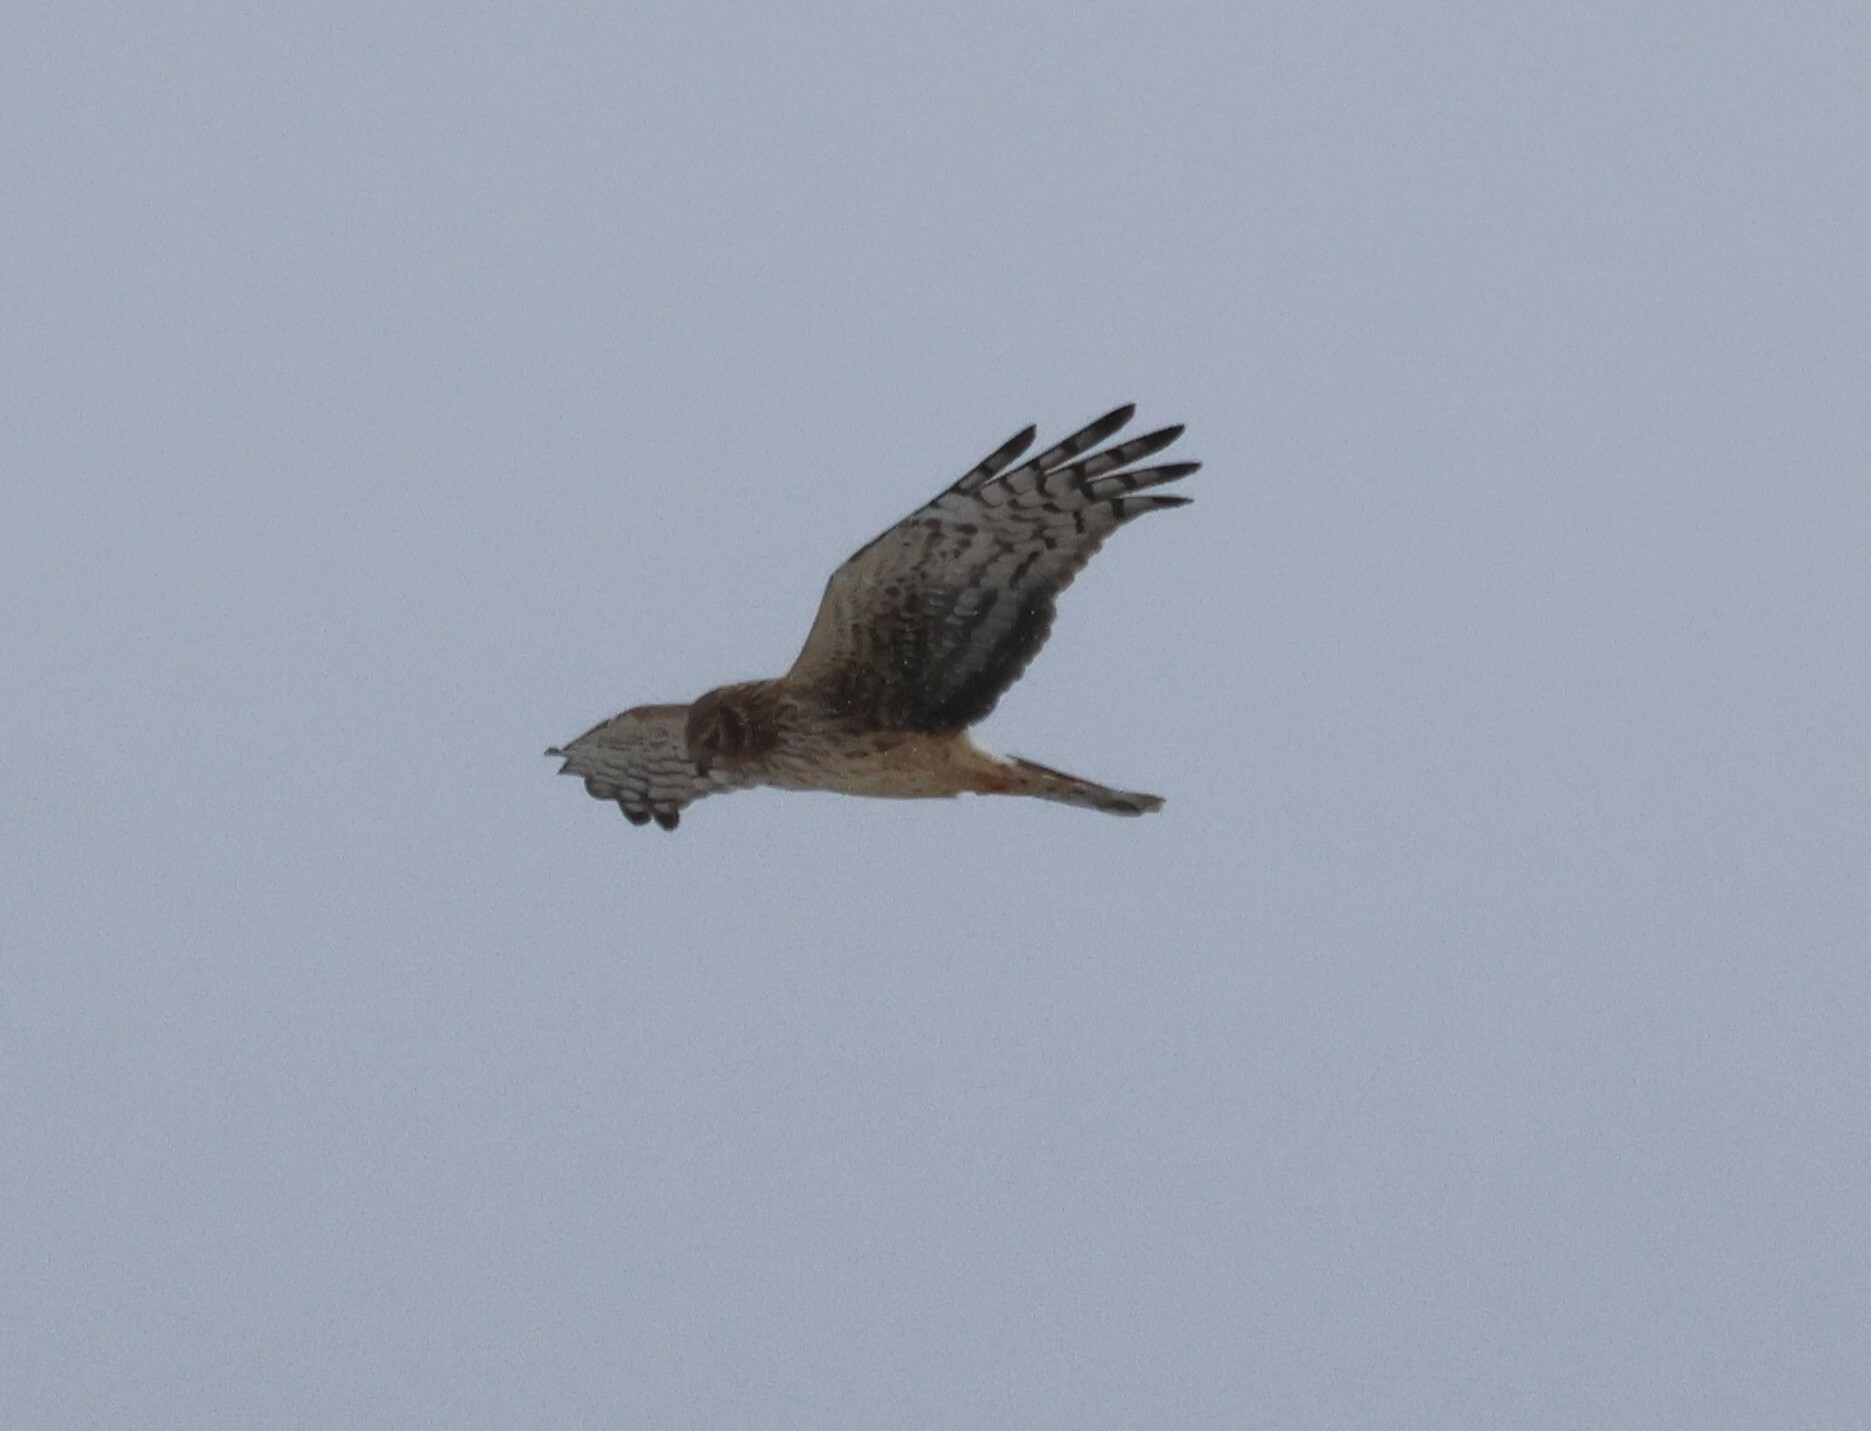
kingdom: Animalia
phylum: Chordata
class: Aves
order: Accipitriformes
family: Accipitridae
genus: Circus
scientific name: Circus cyaneus
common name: Hen harrier
